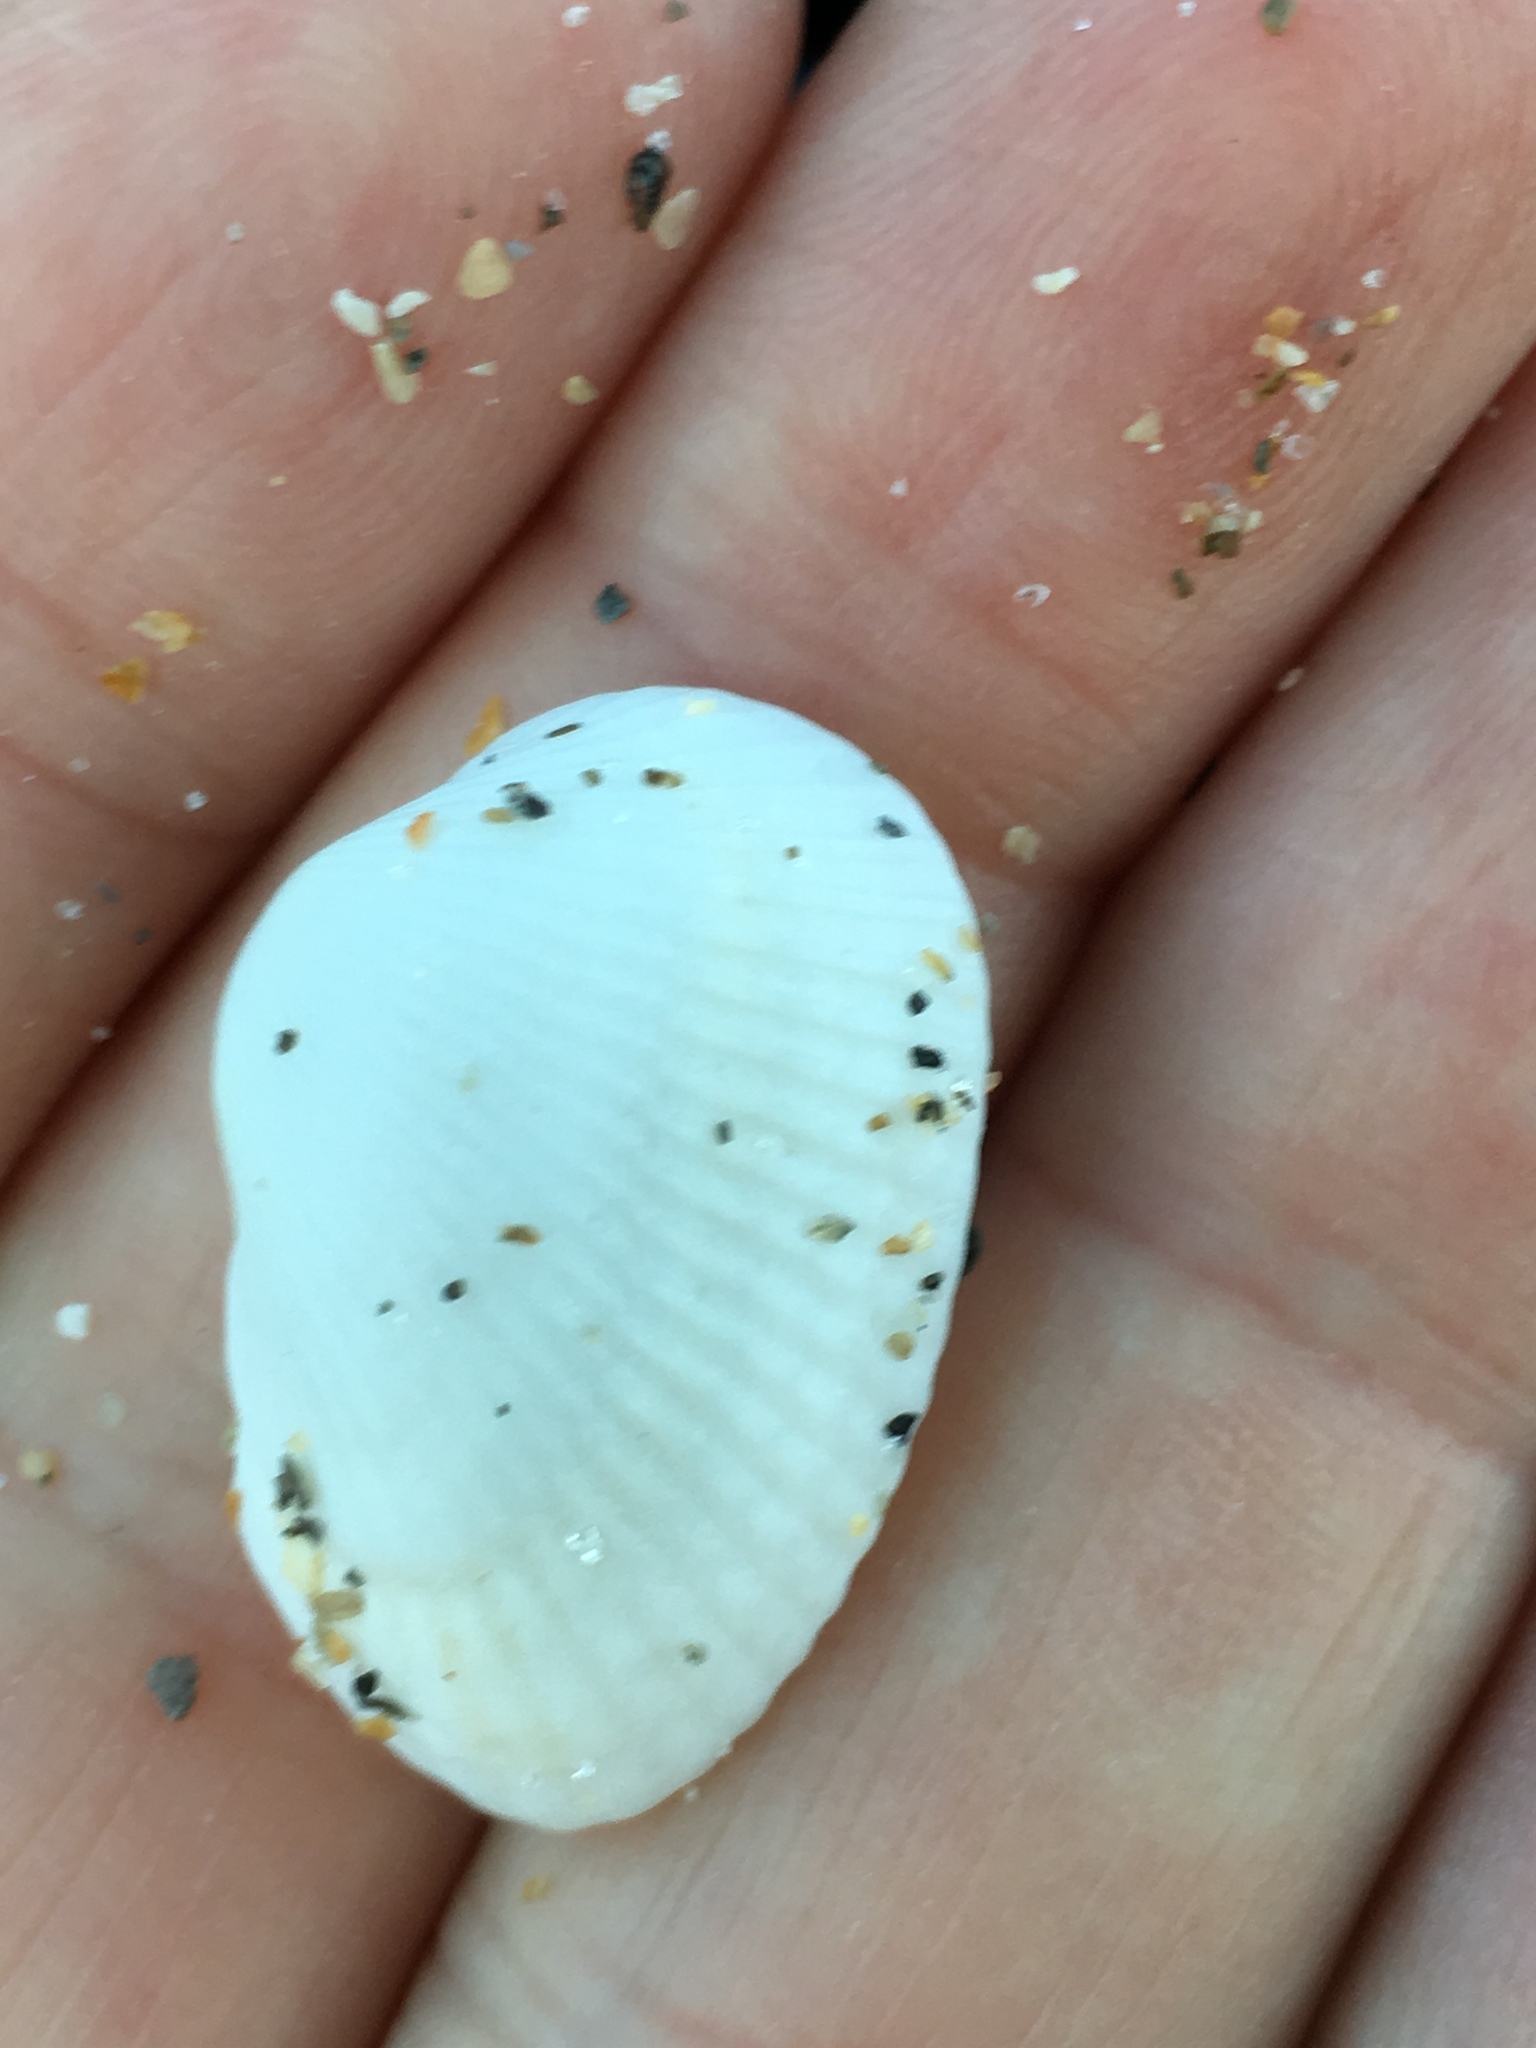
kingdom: Animalia
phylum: Mollusca
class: Bivalvia
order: Arcida
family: Arcidae
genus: Anadara
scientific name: Anadara transversa
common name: Transverse ark
